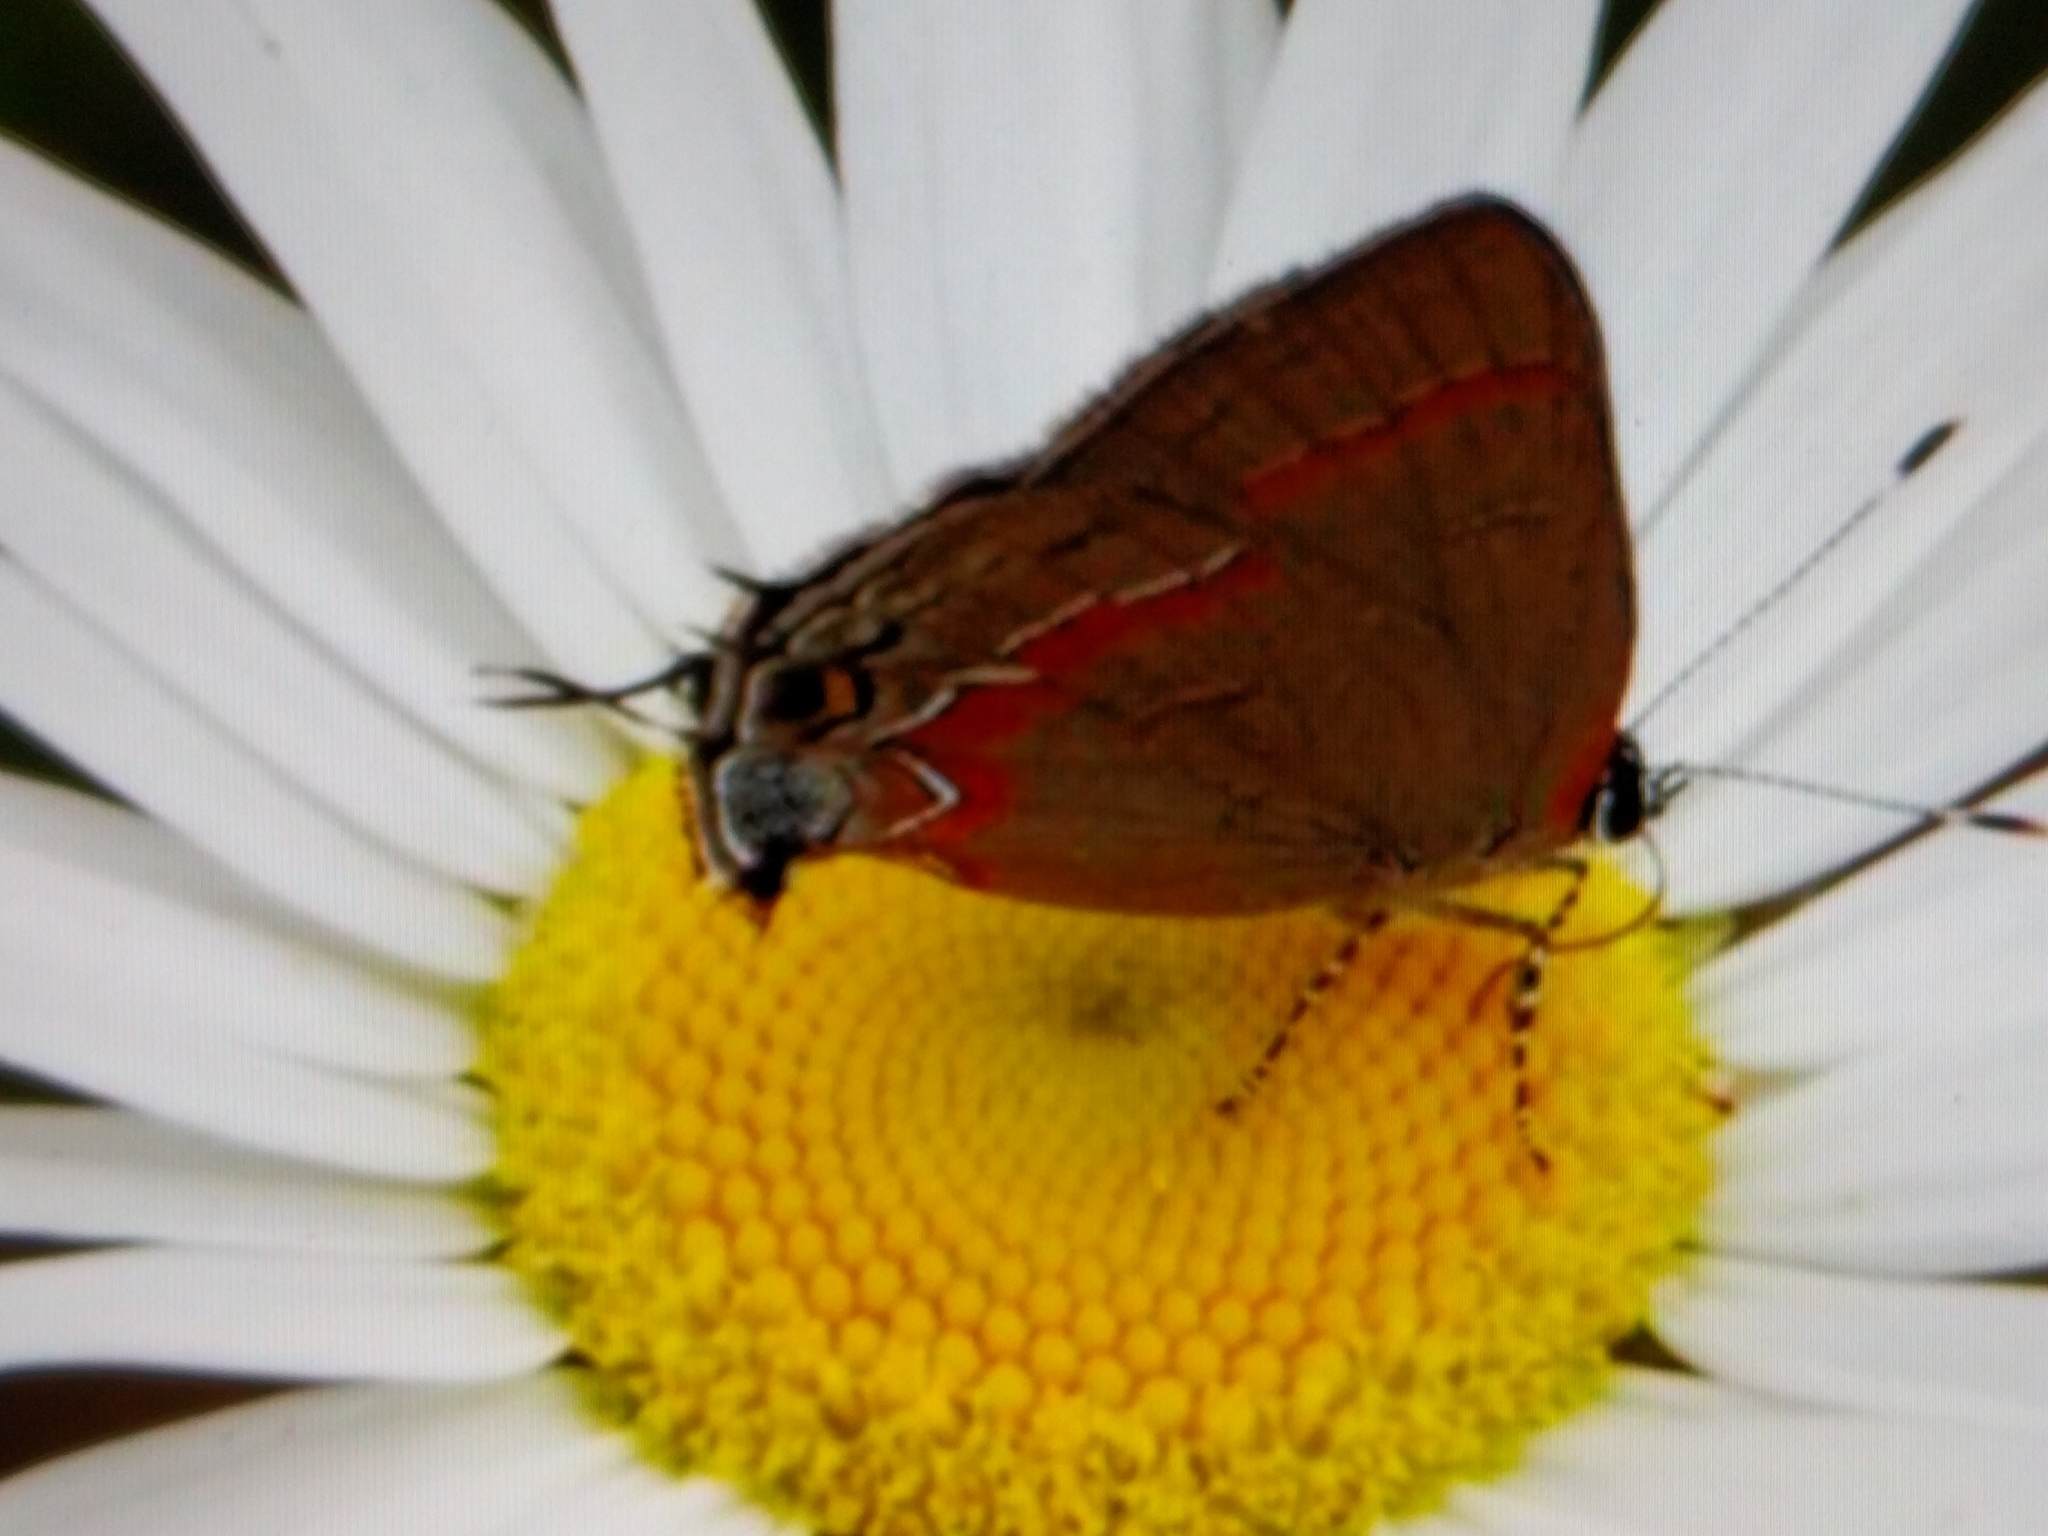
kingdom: Animalia
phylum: Arthropoda
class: Insecta
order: Lepidoptera
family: Lycaenidae
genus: Calycopis
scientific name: Calycopis cecrops
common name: Red-banded hairstreak
